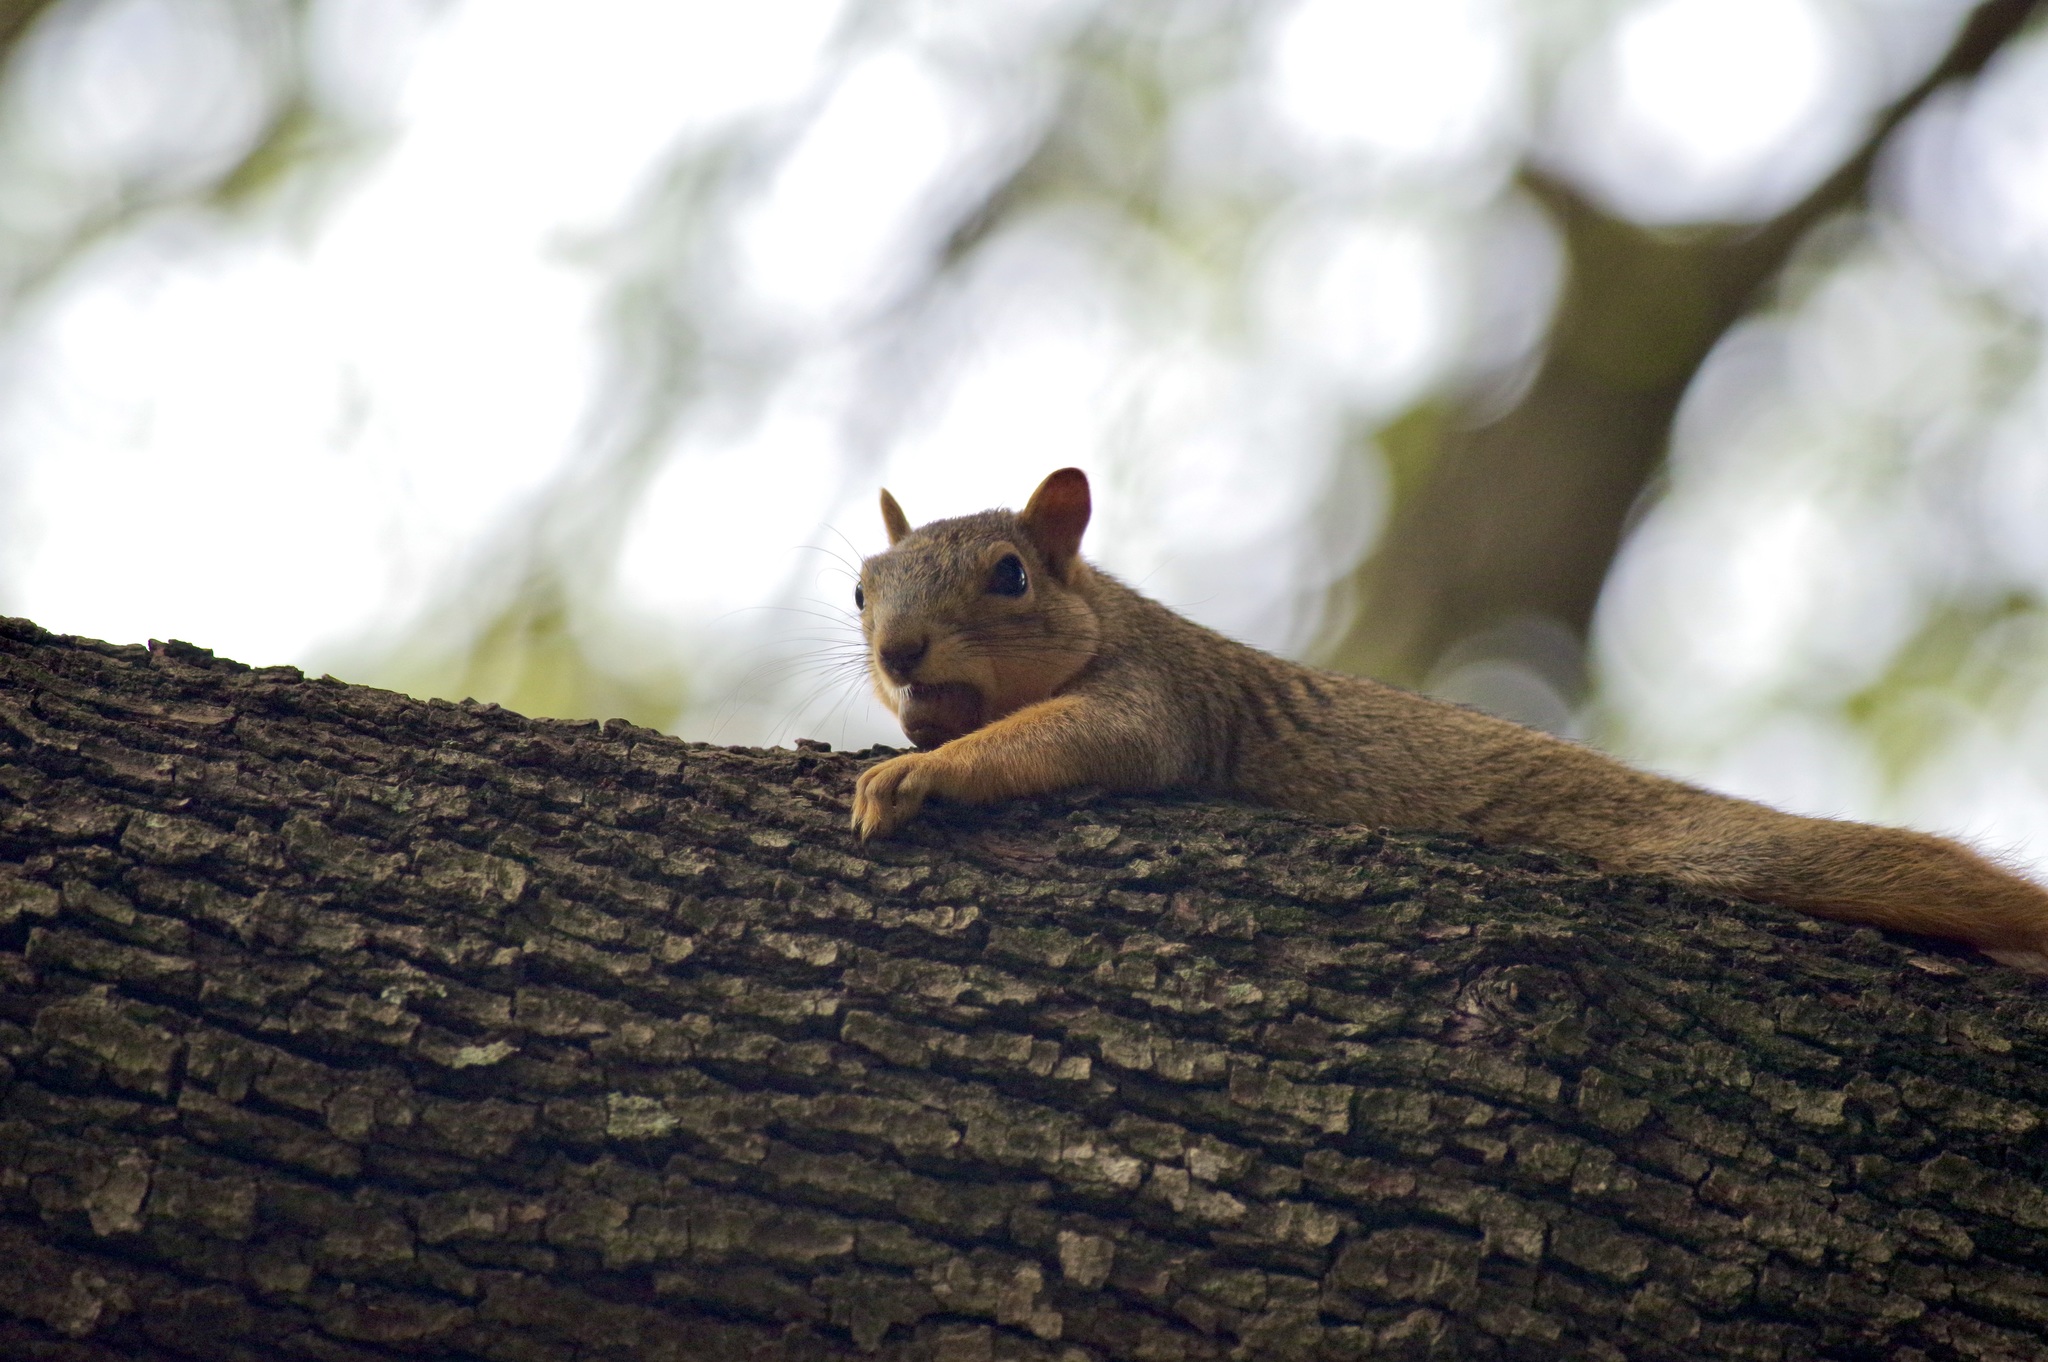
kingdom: Animalia
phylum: Chordata
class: Mammalia
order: Rodentia
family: Sciuridae
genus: Sciurus
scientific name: Sciurus niger
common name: Fox squirrel
